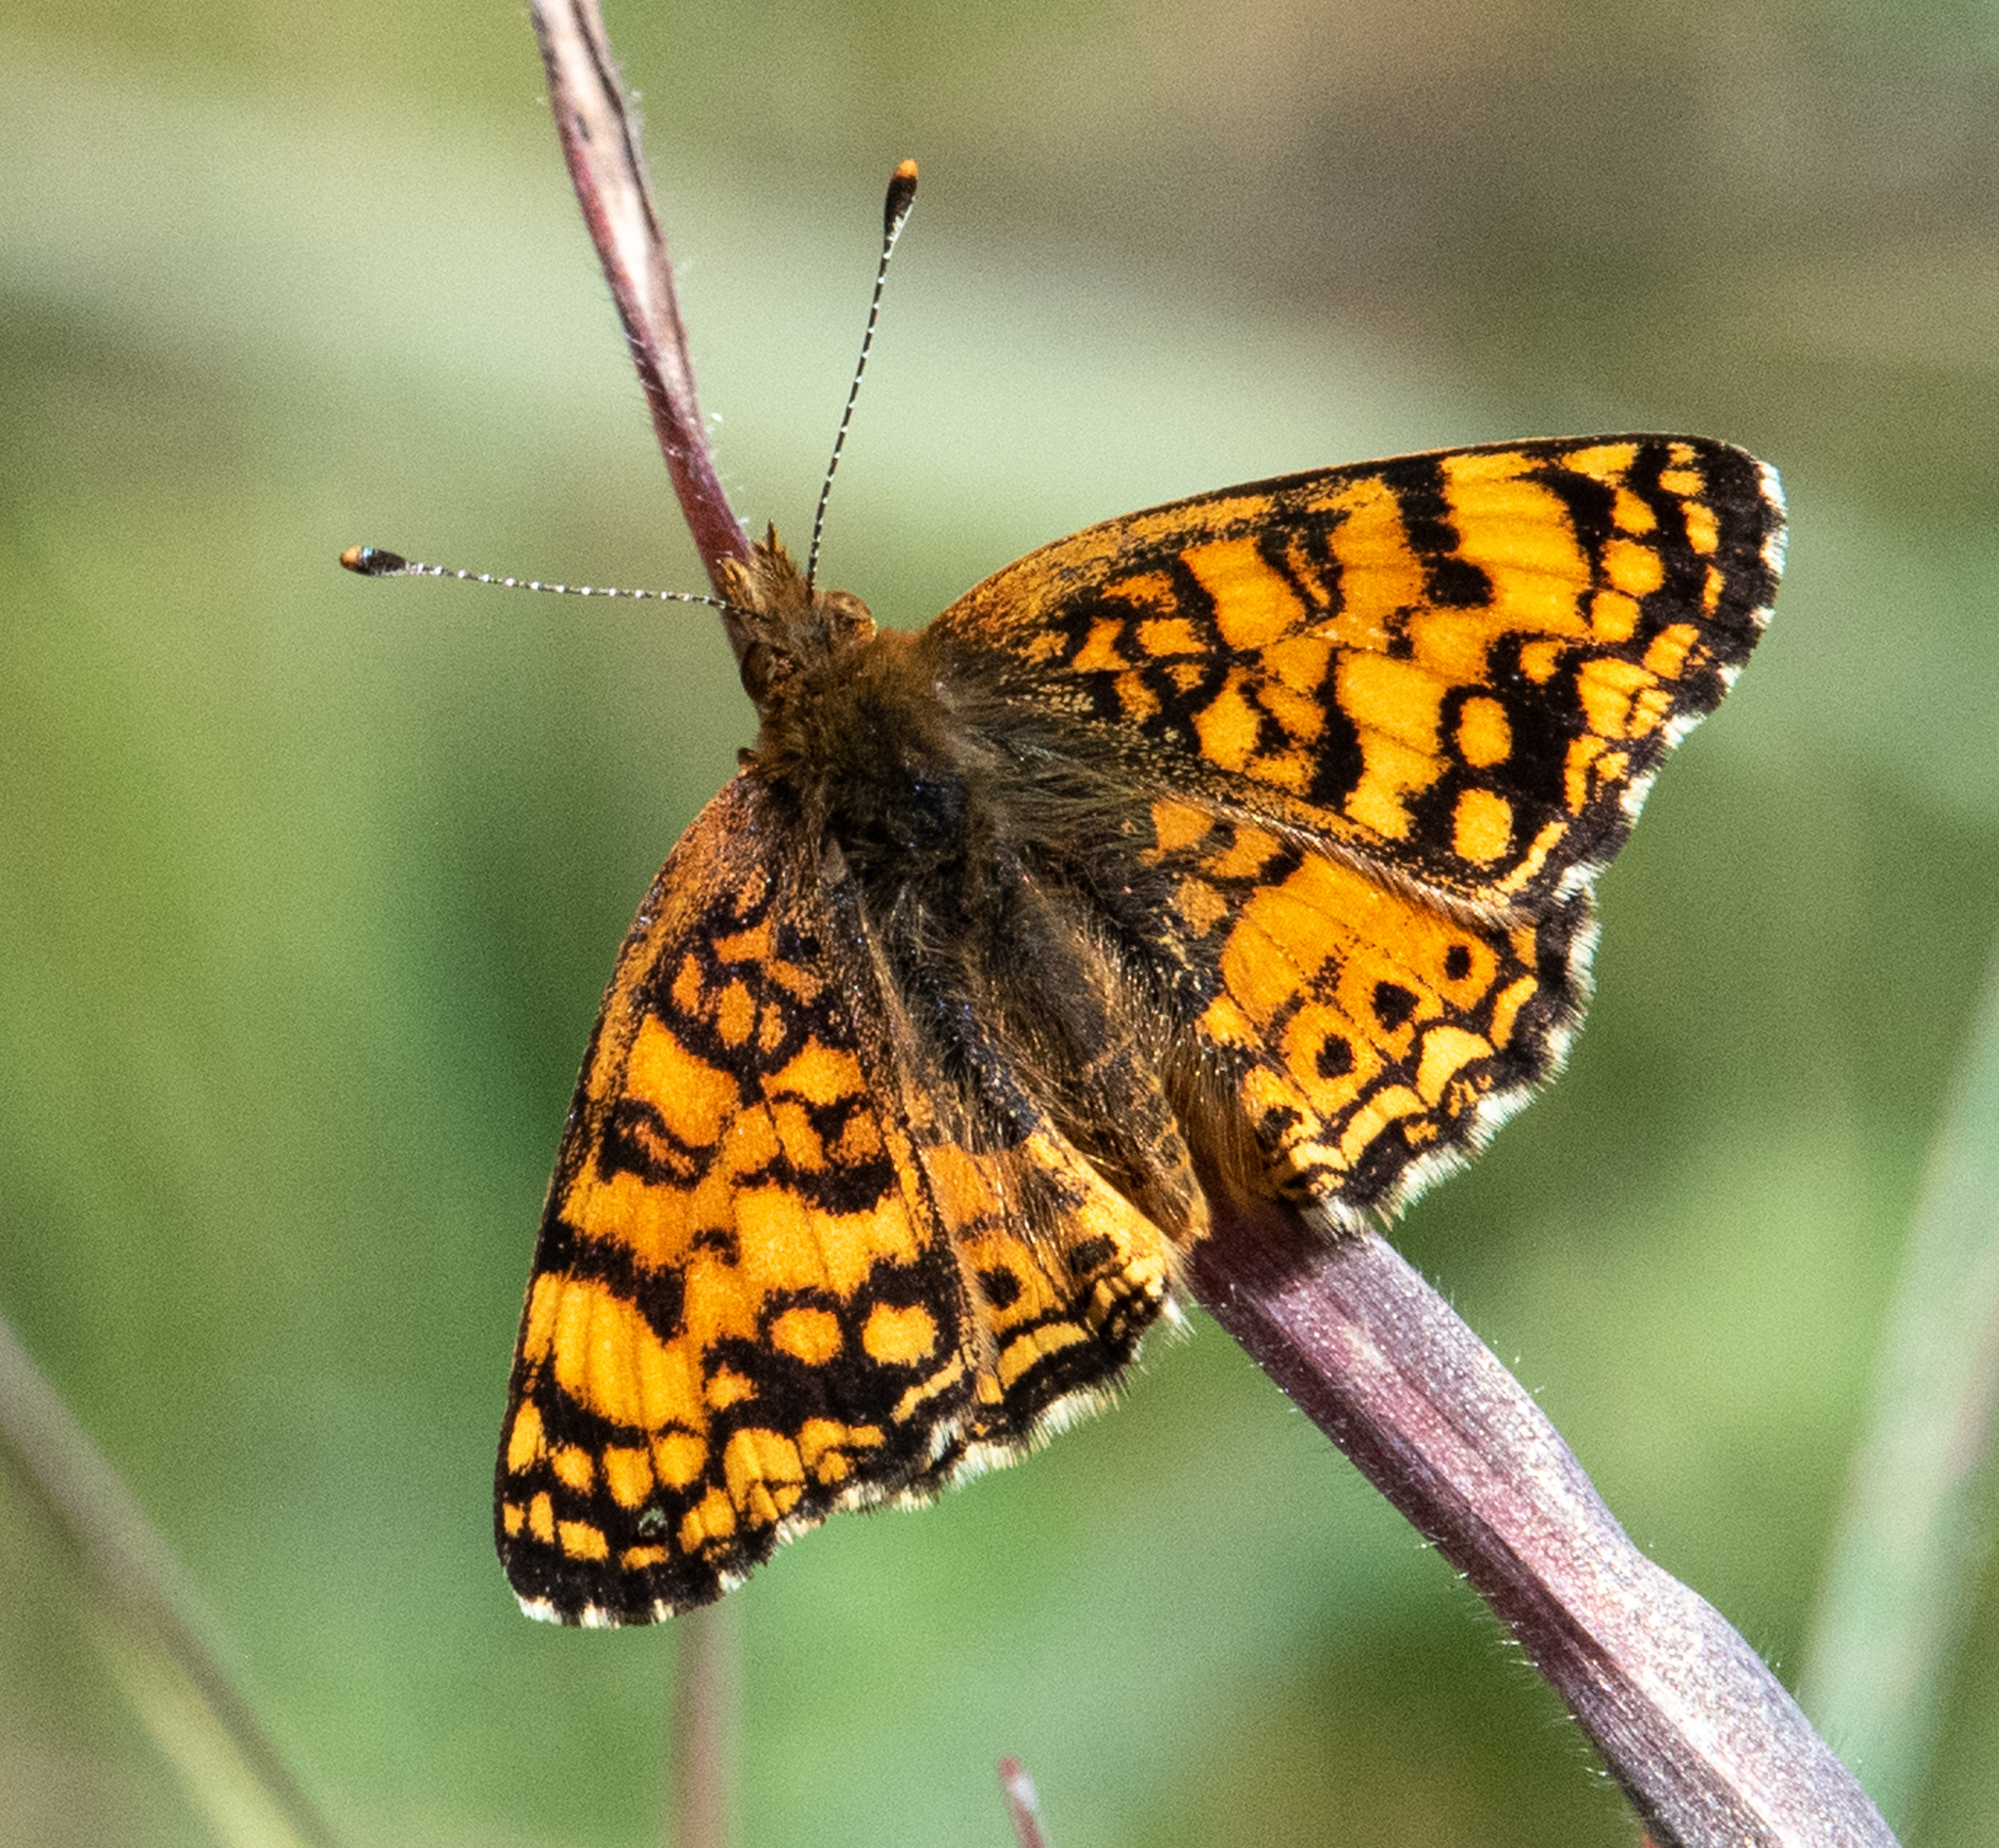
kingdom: Animalia
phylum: Arthropoda
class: Insecta
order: Lepidoptera
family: Nymphalidae
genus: Eresia
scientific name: Eresia aveyrona
